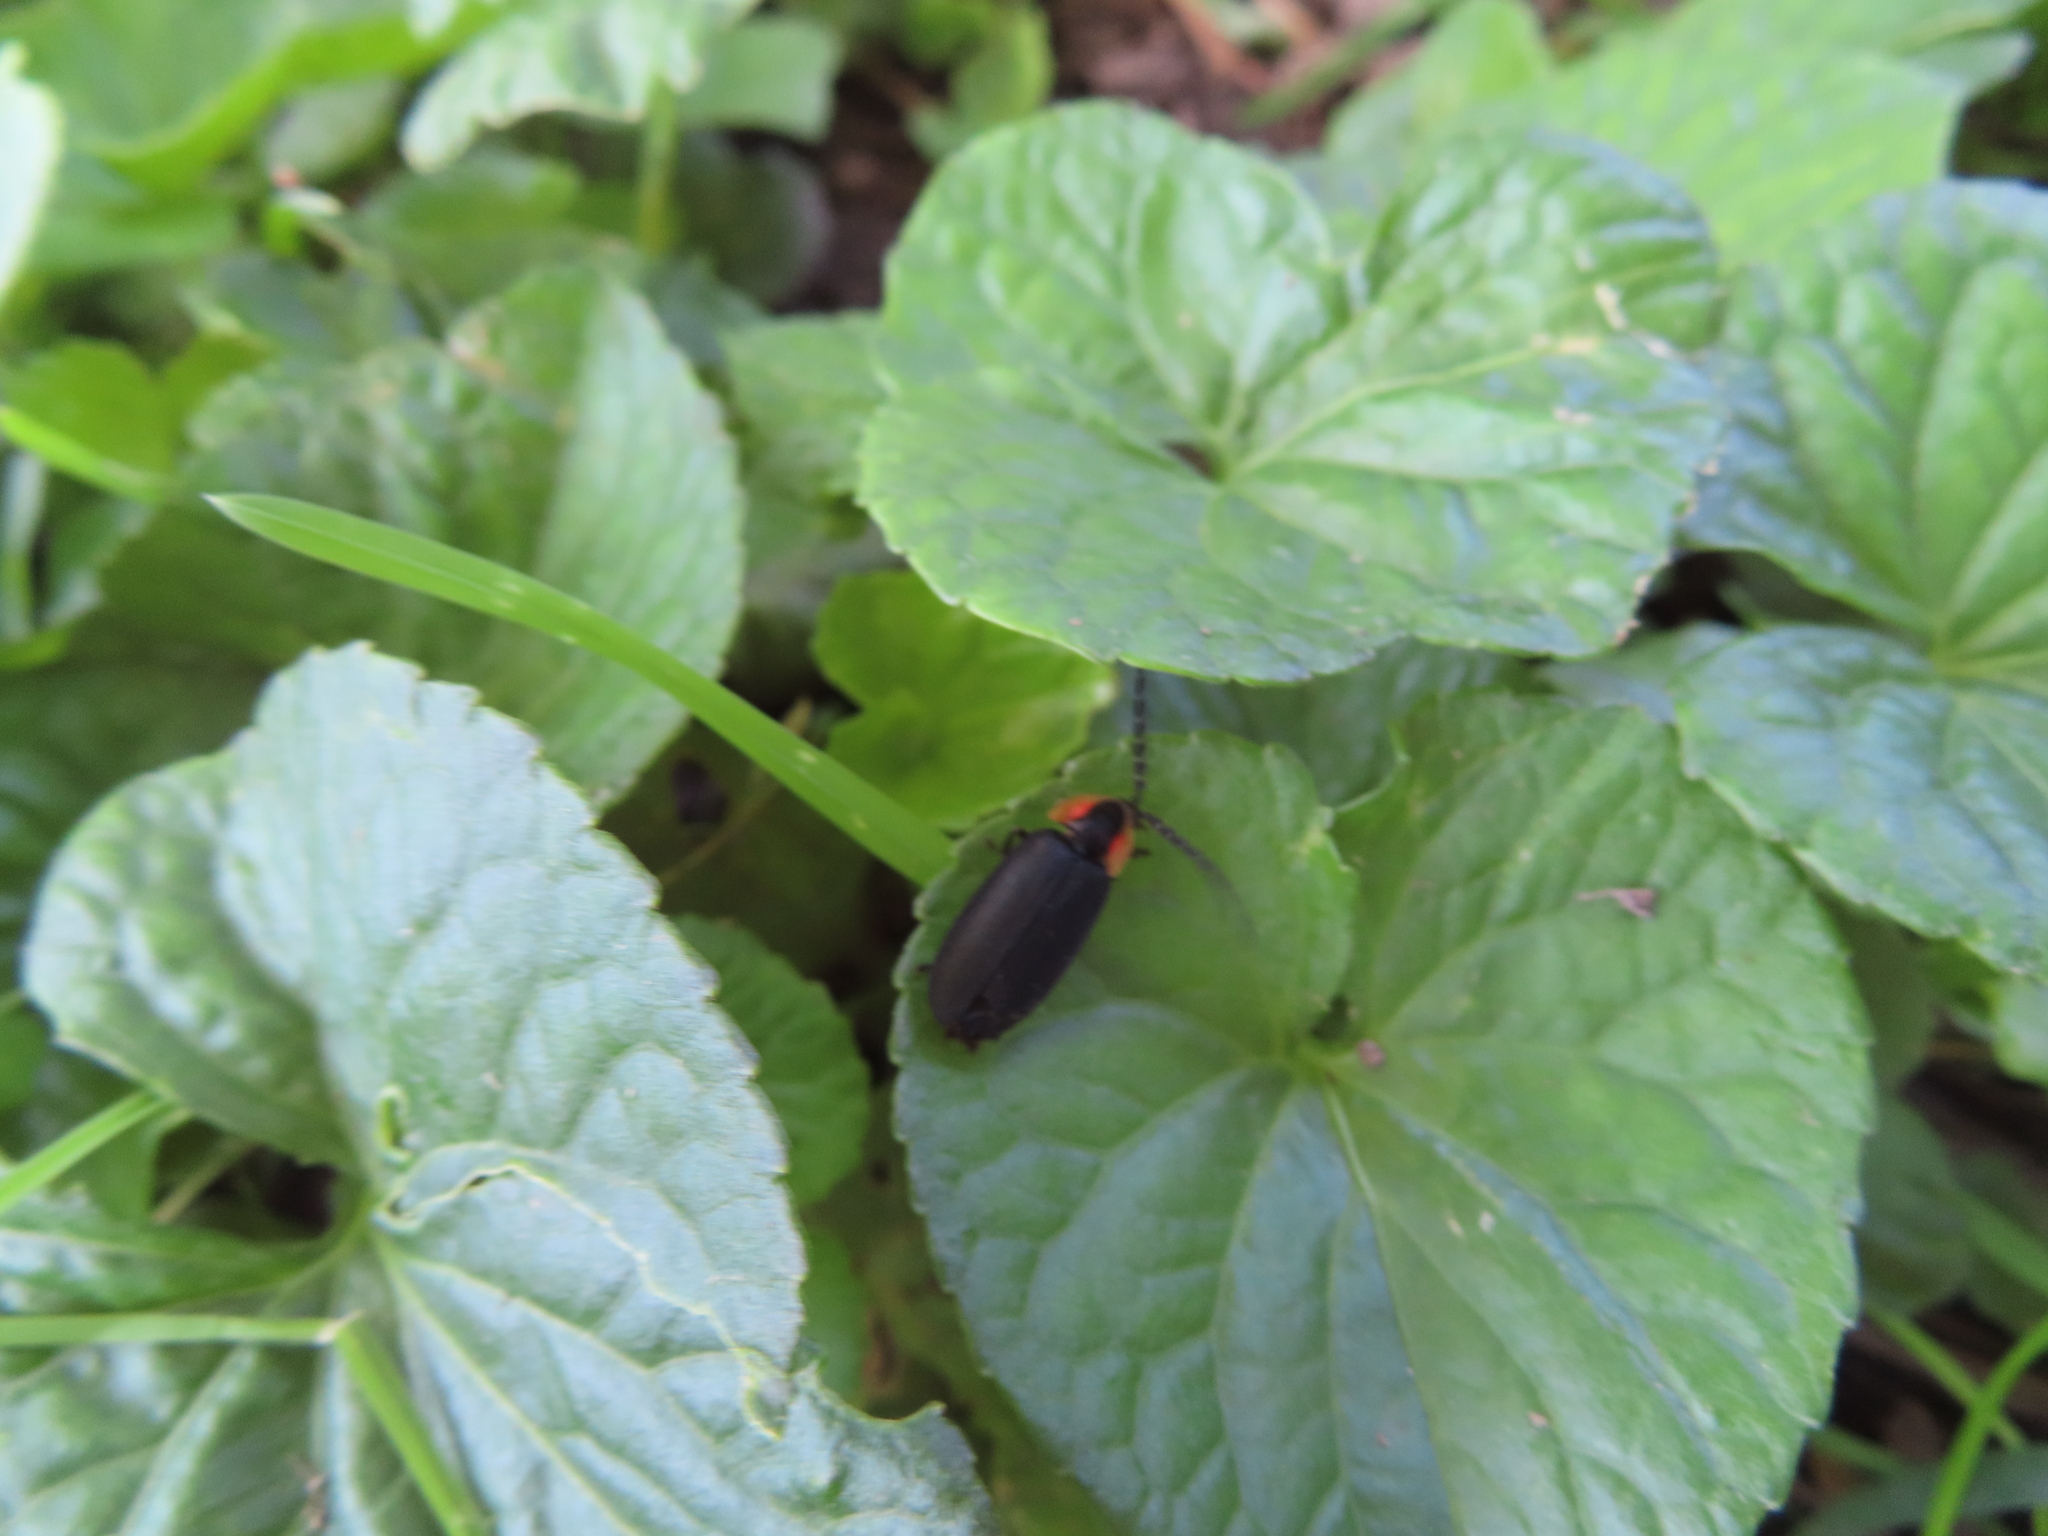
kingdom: Animalia
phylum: Arthropoda
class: Insecta
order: Coleoptera
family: Lampyridae
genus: Lucidota
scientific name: Lucidota atra
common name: Black firefly
